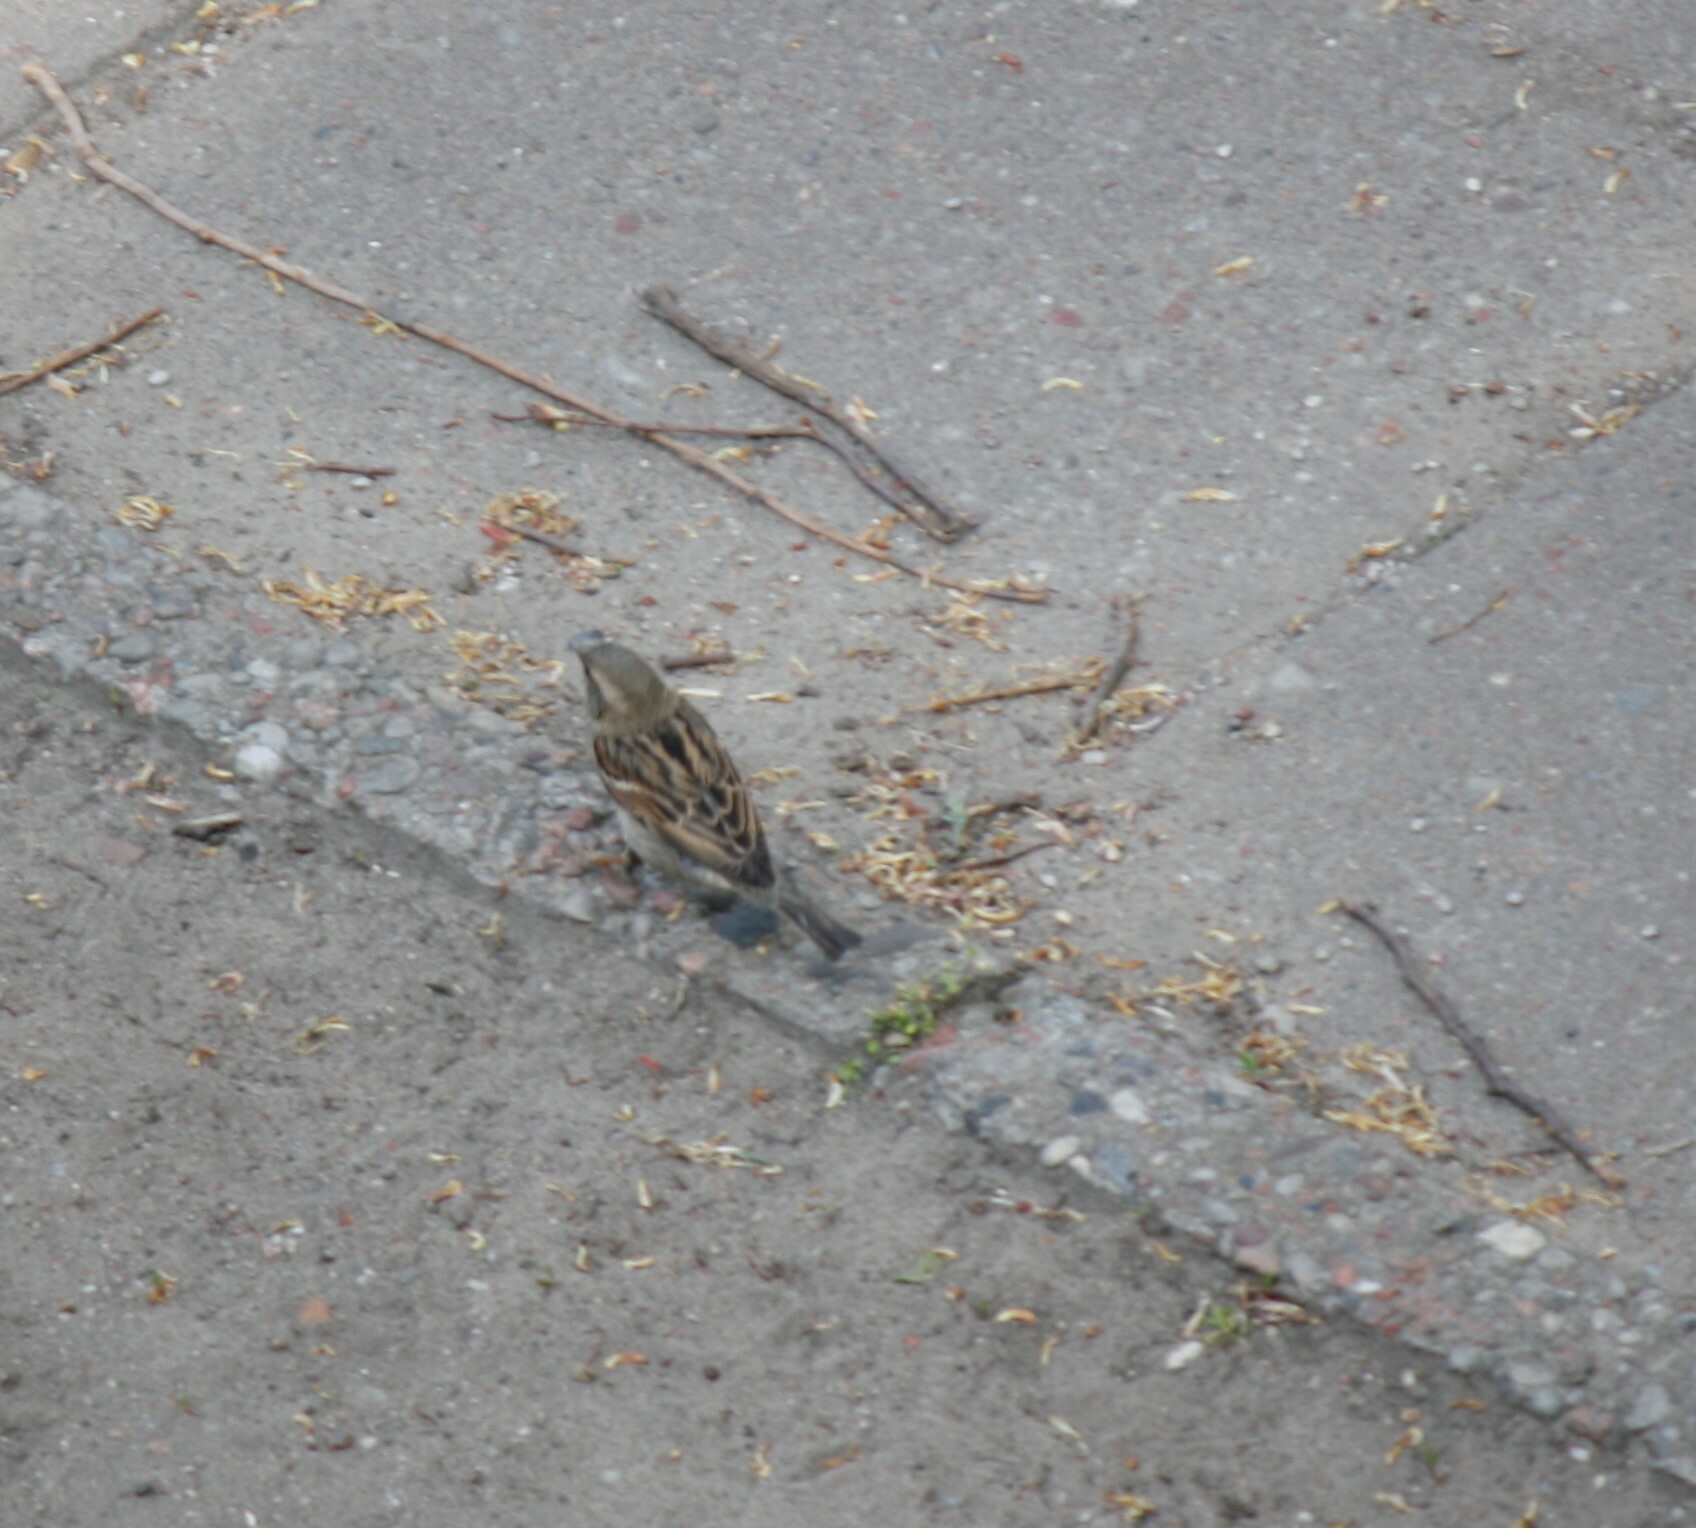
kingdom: Animalia
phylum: Chordata
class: Aves
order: Passeriformes
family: Passeridae
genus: Passer
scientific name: Passer domesticus
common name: House sparrow
